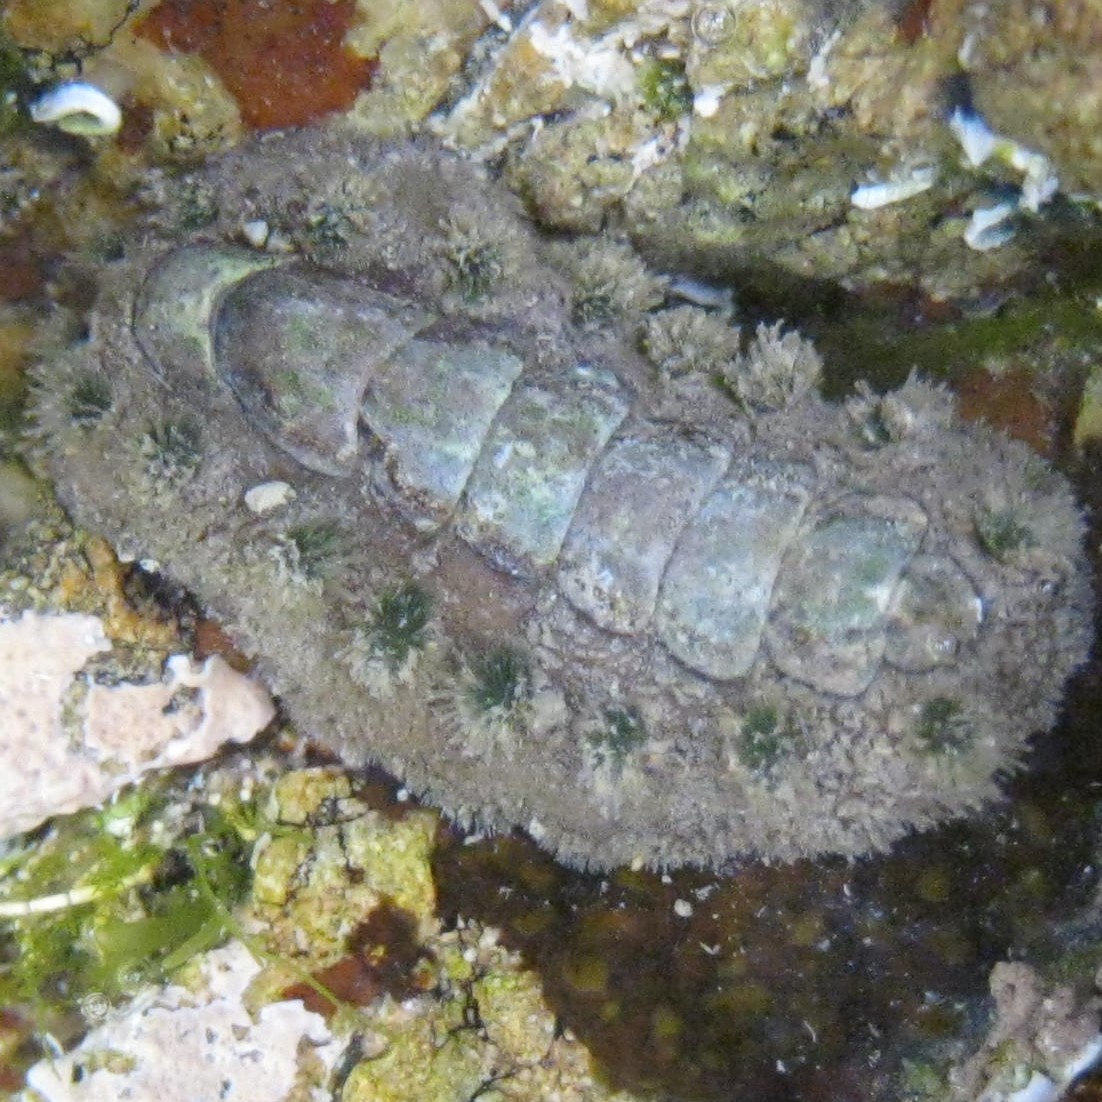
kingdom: Animalia
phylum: Mollusca
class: Polyplacophora
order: Chitonida
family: Acanthochitonidae
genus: Acanthochitona
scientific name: Acanthochitona zelandica
